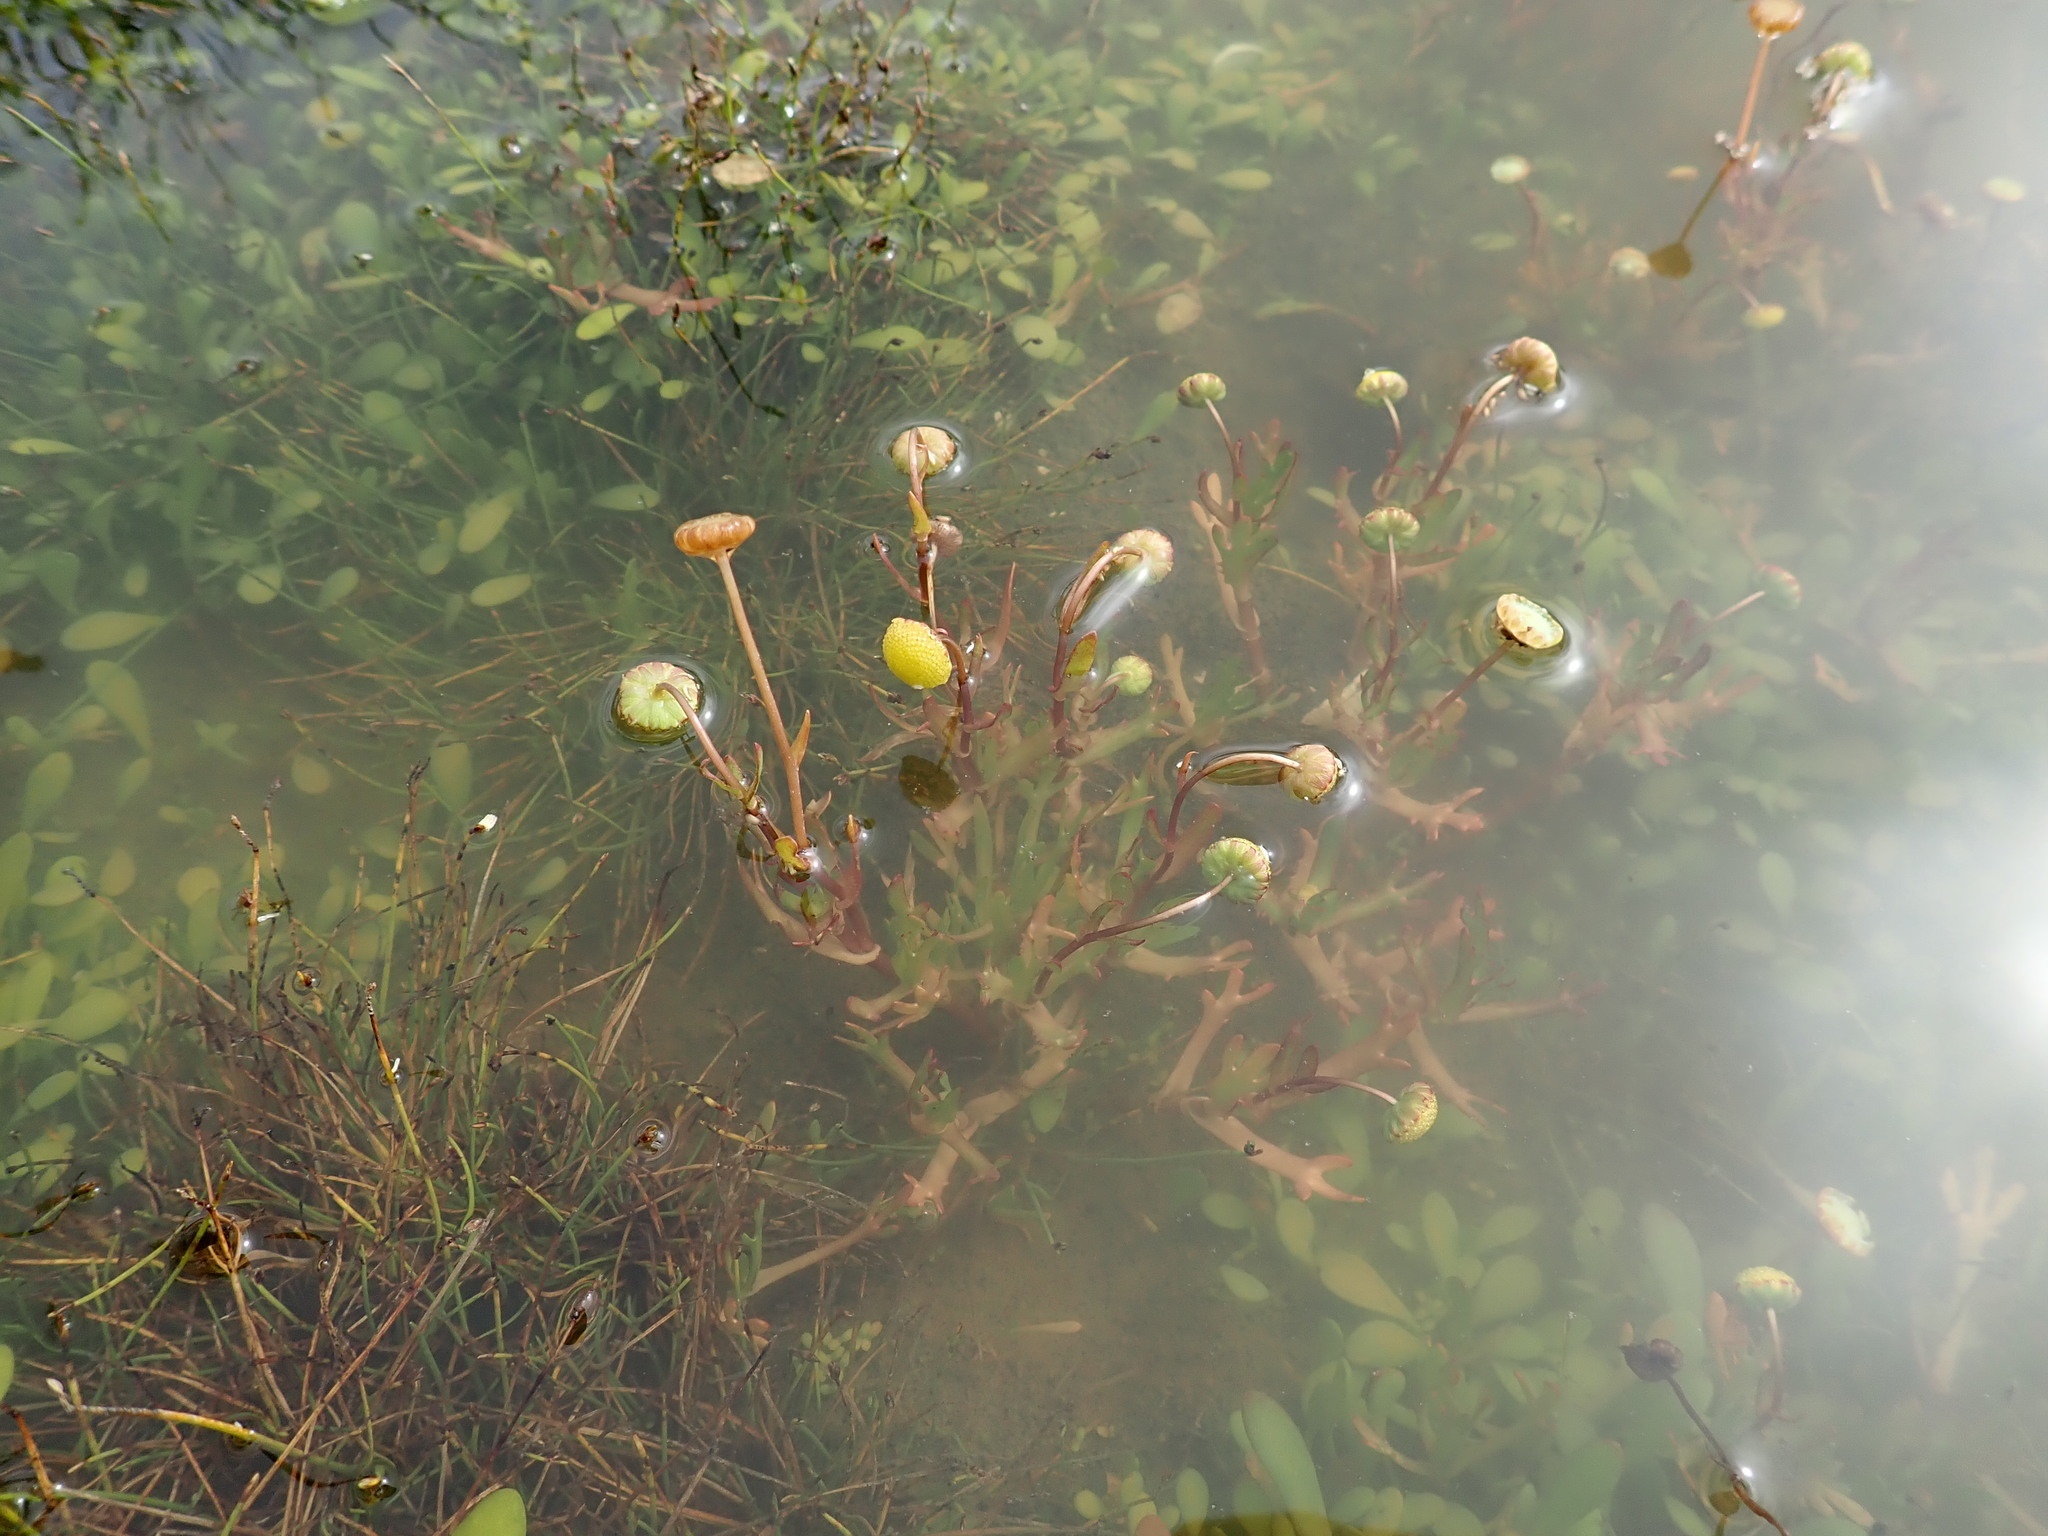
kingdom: Plantae
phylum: Tracheophyta
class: Magnoliopsida
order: Asterales
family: Asteraceae
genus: Cotula
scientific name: Cotula coronopifolia
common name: Buttonweed
